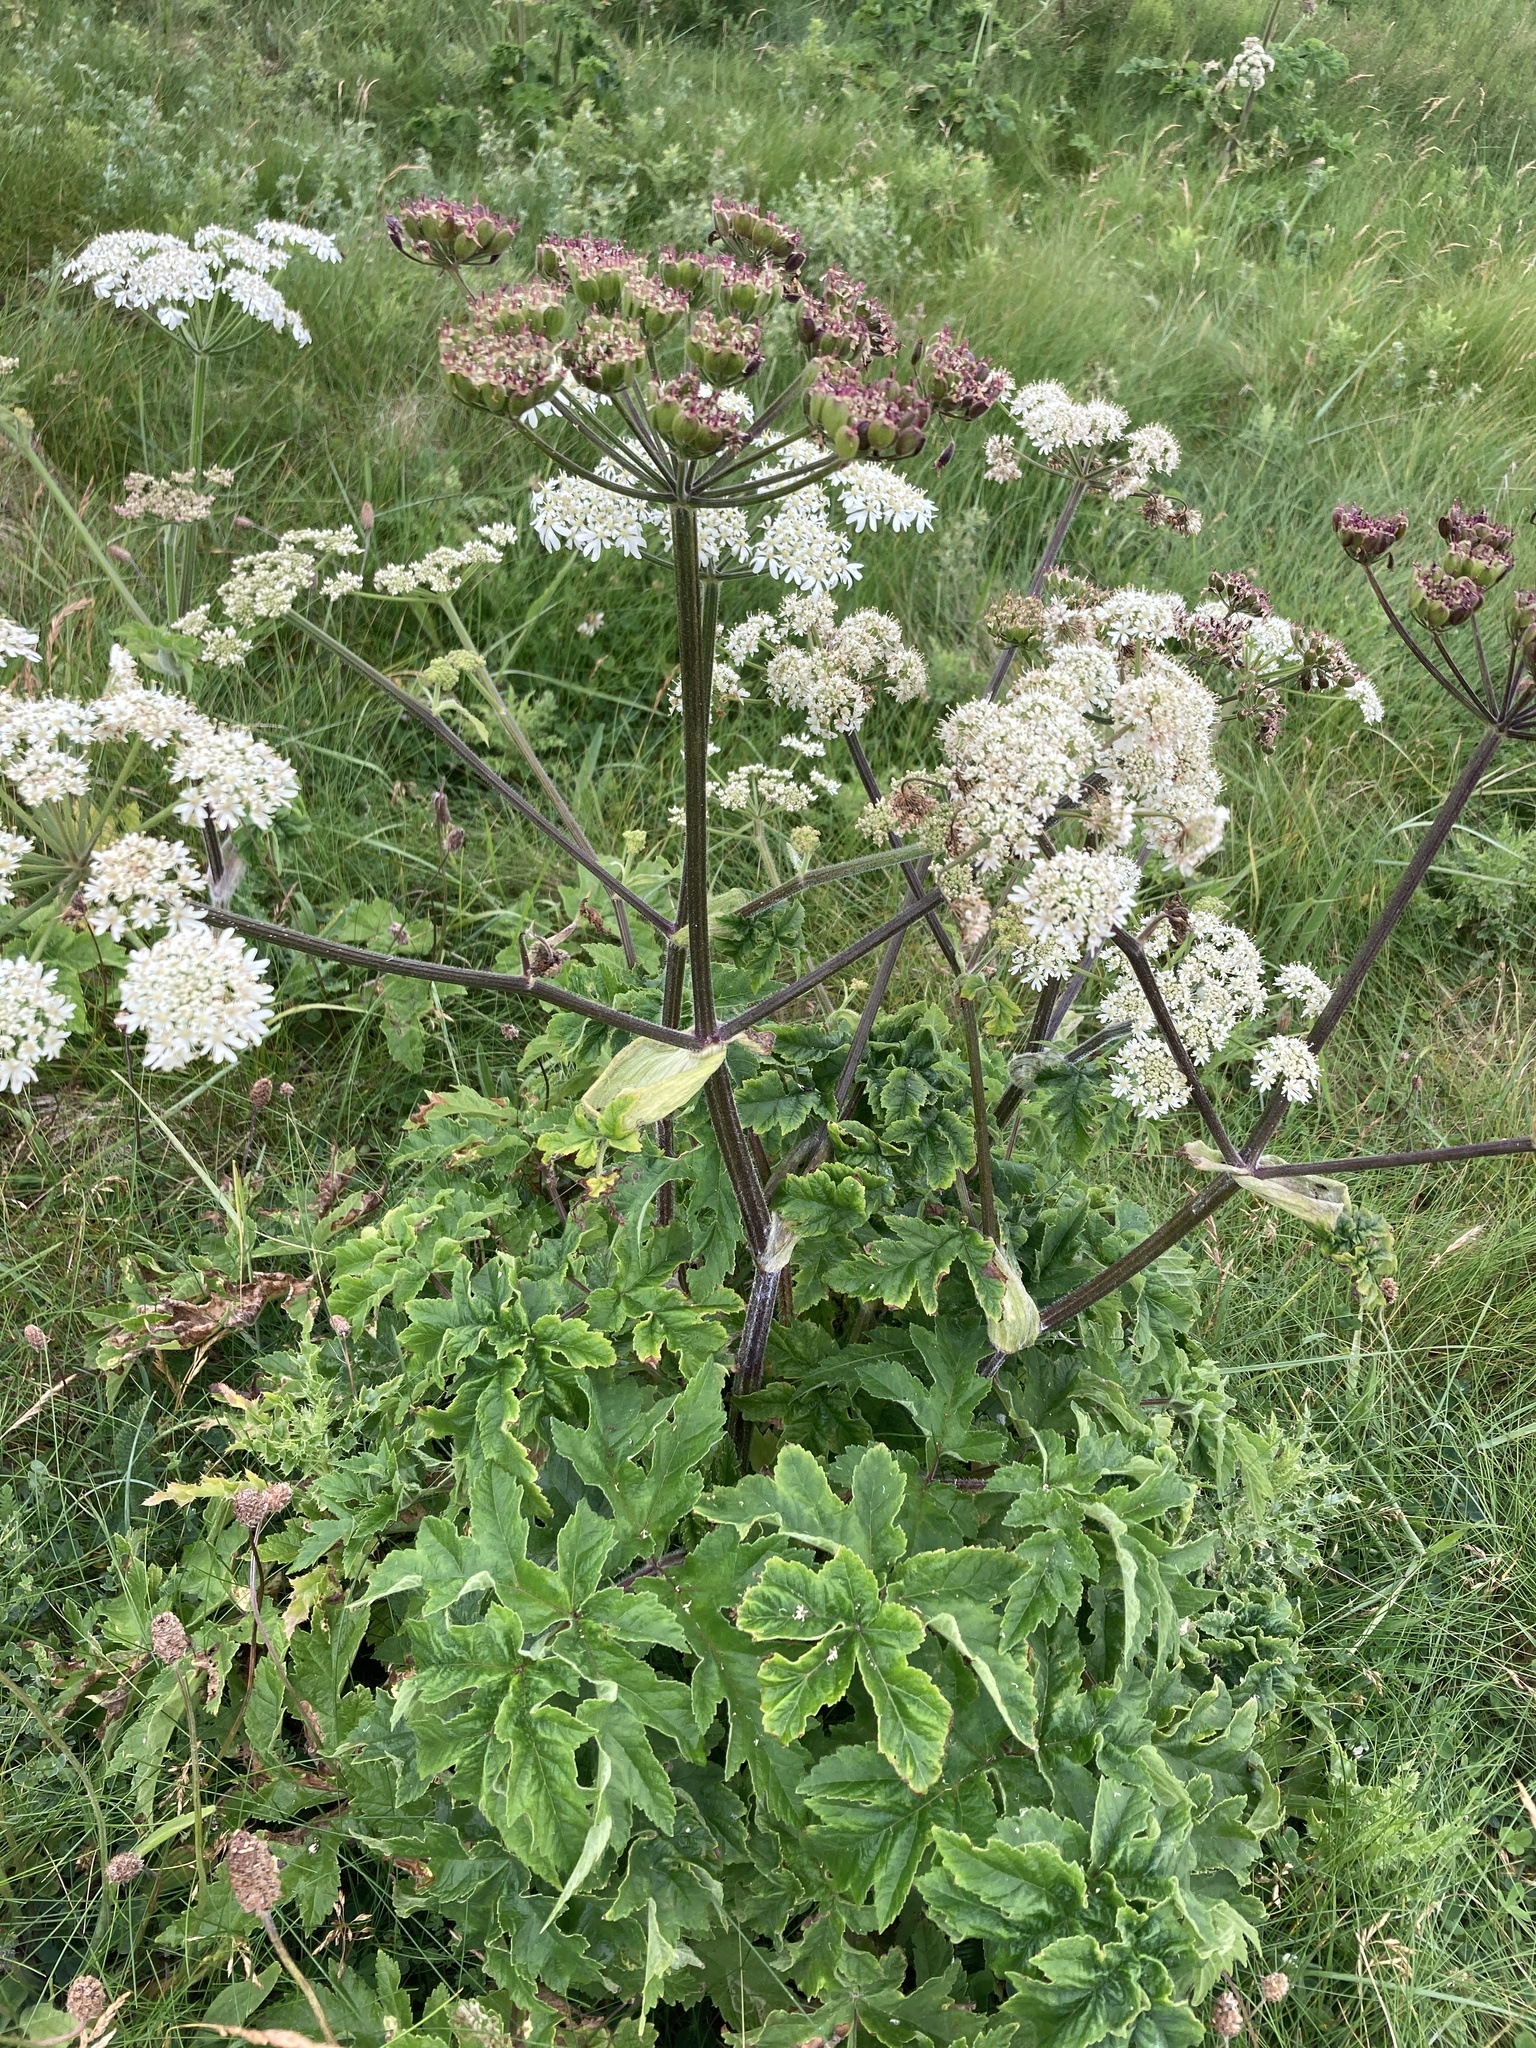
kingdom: Plantae
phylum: Tracheophyta
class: Magnoliopsida
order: Apiales
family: Apiaceae
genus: Heracleum
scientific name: Heracleum sphondylium
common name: Hogweed
